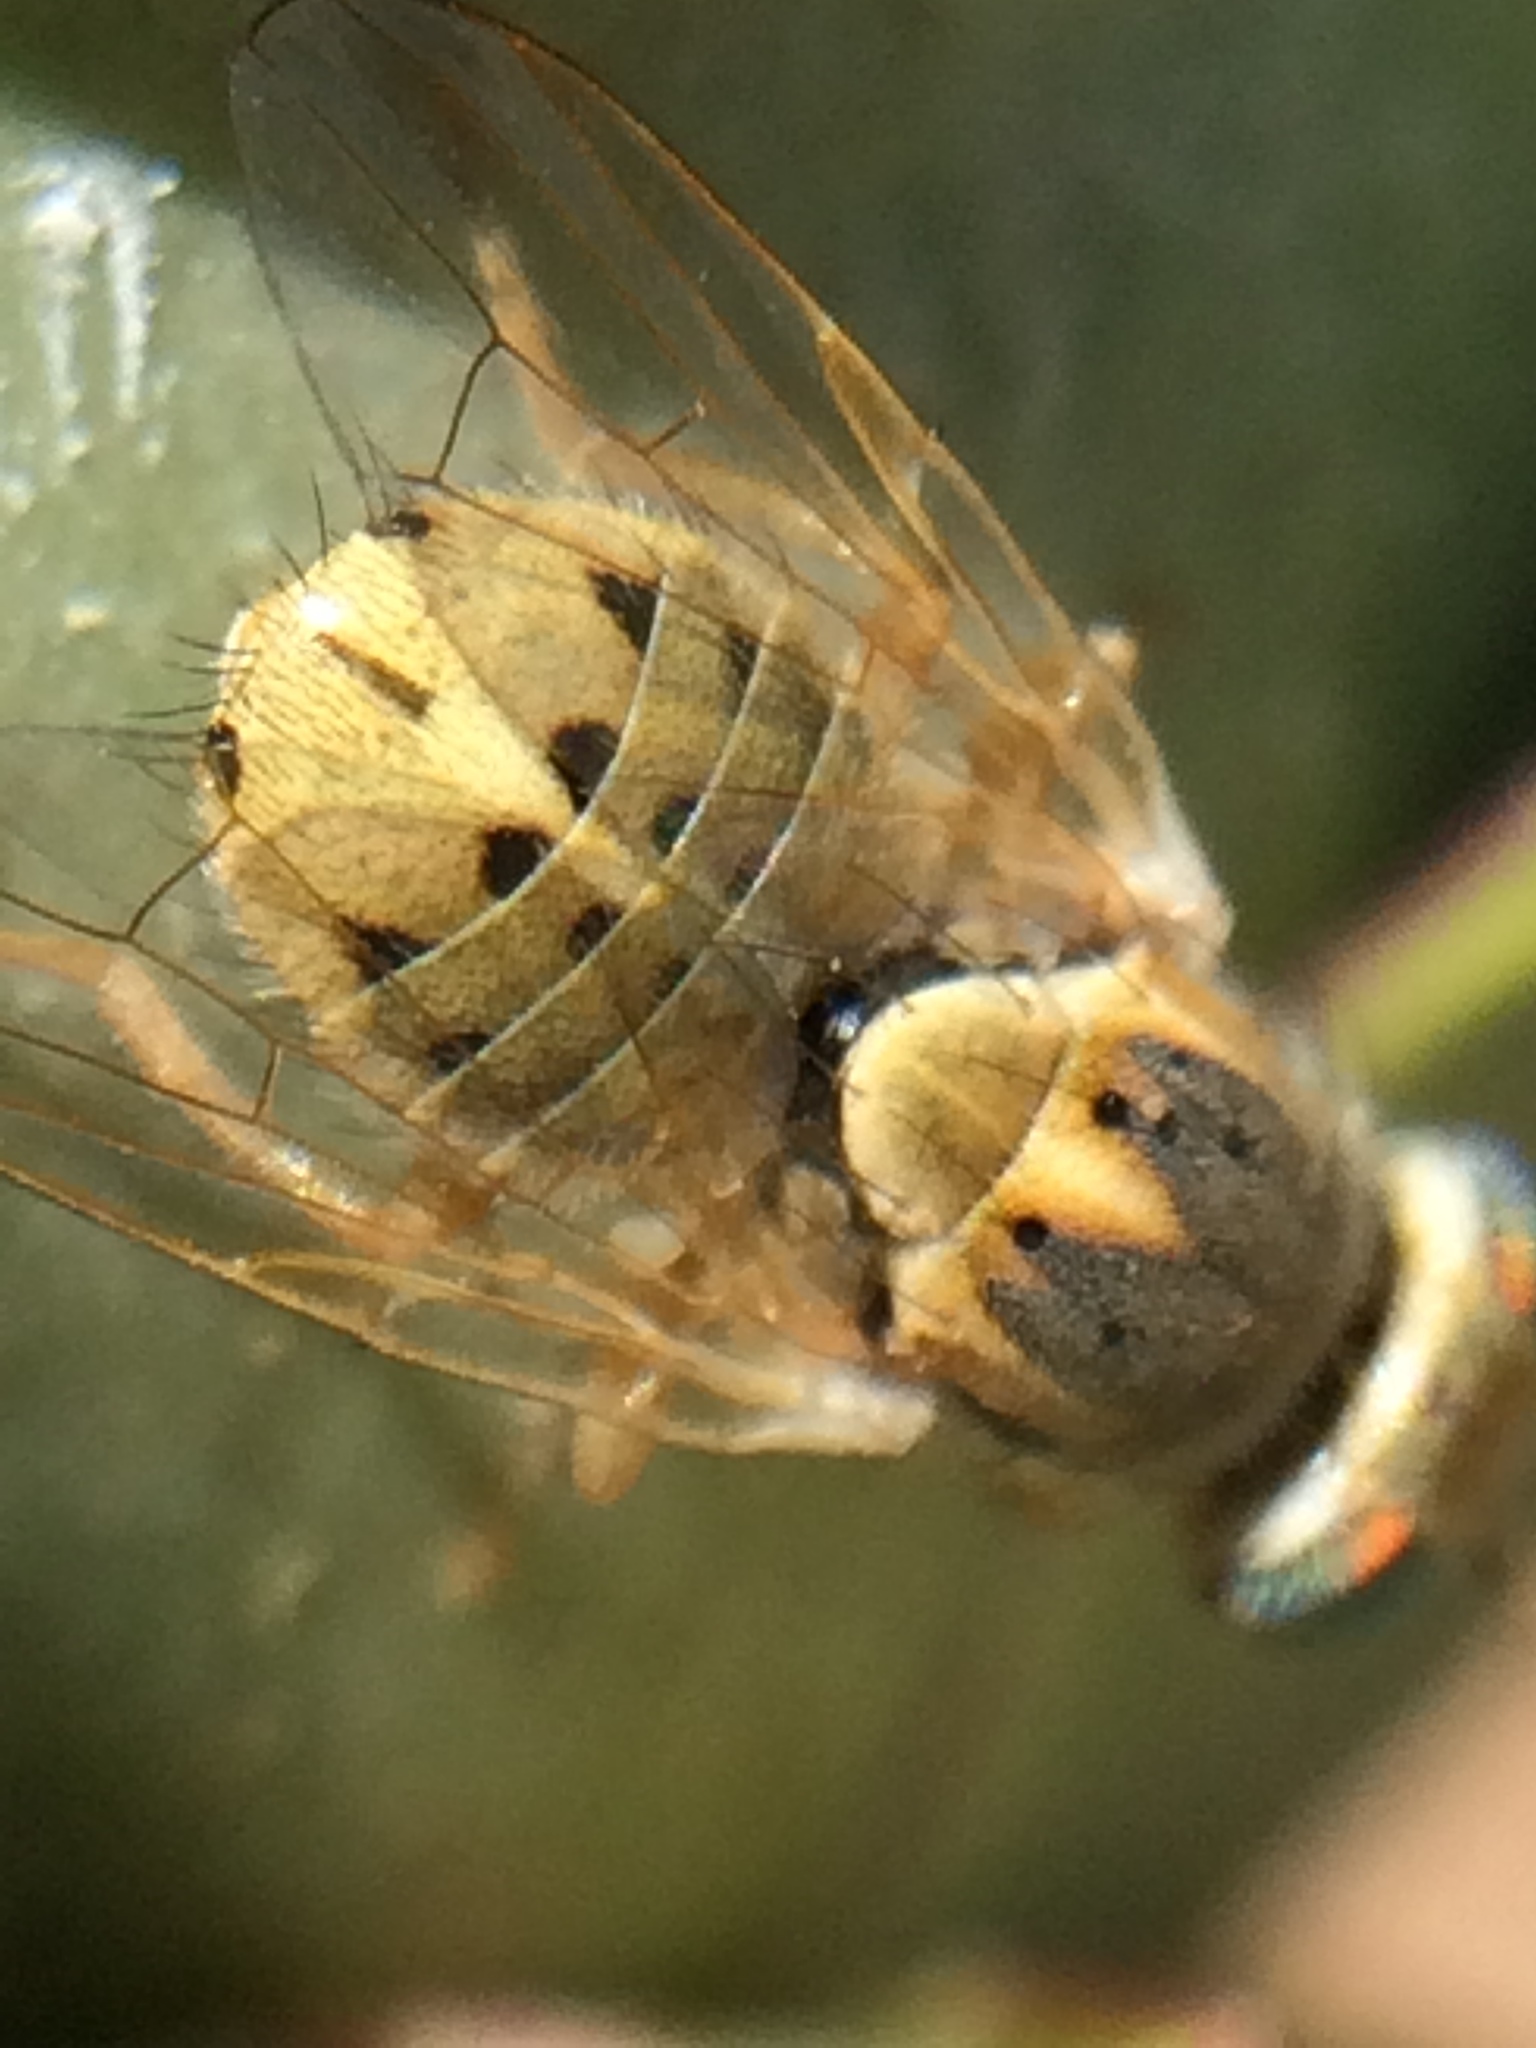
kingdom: Animalia
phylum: Arthropoda
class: Insecta
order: Diptera
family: Tephritidae
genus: Terellia
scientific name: Terellia fuscicornis
